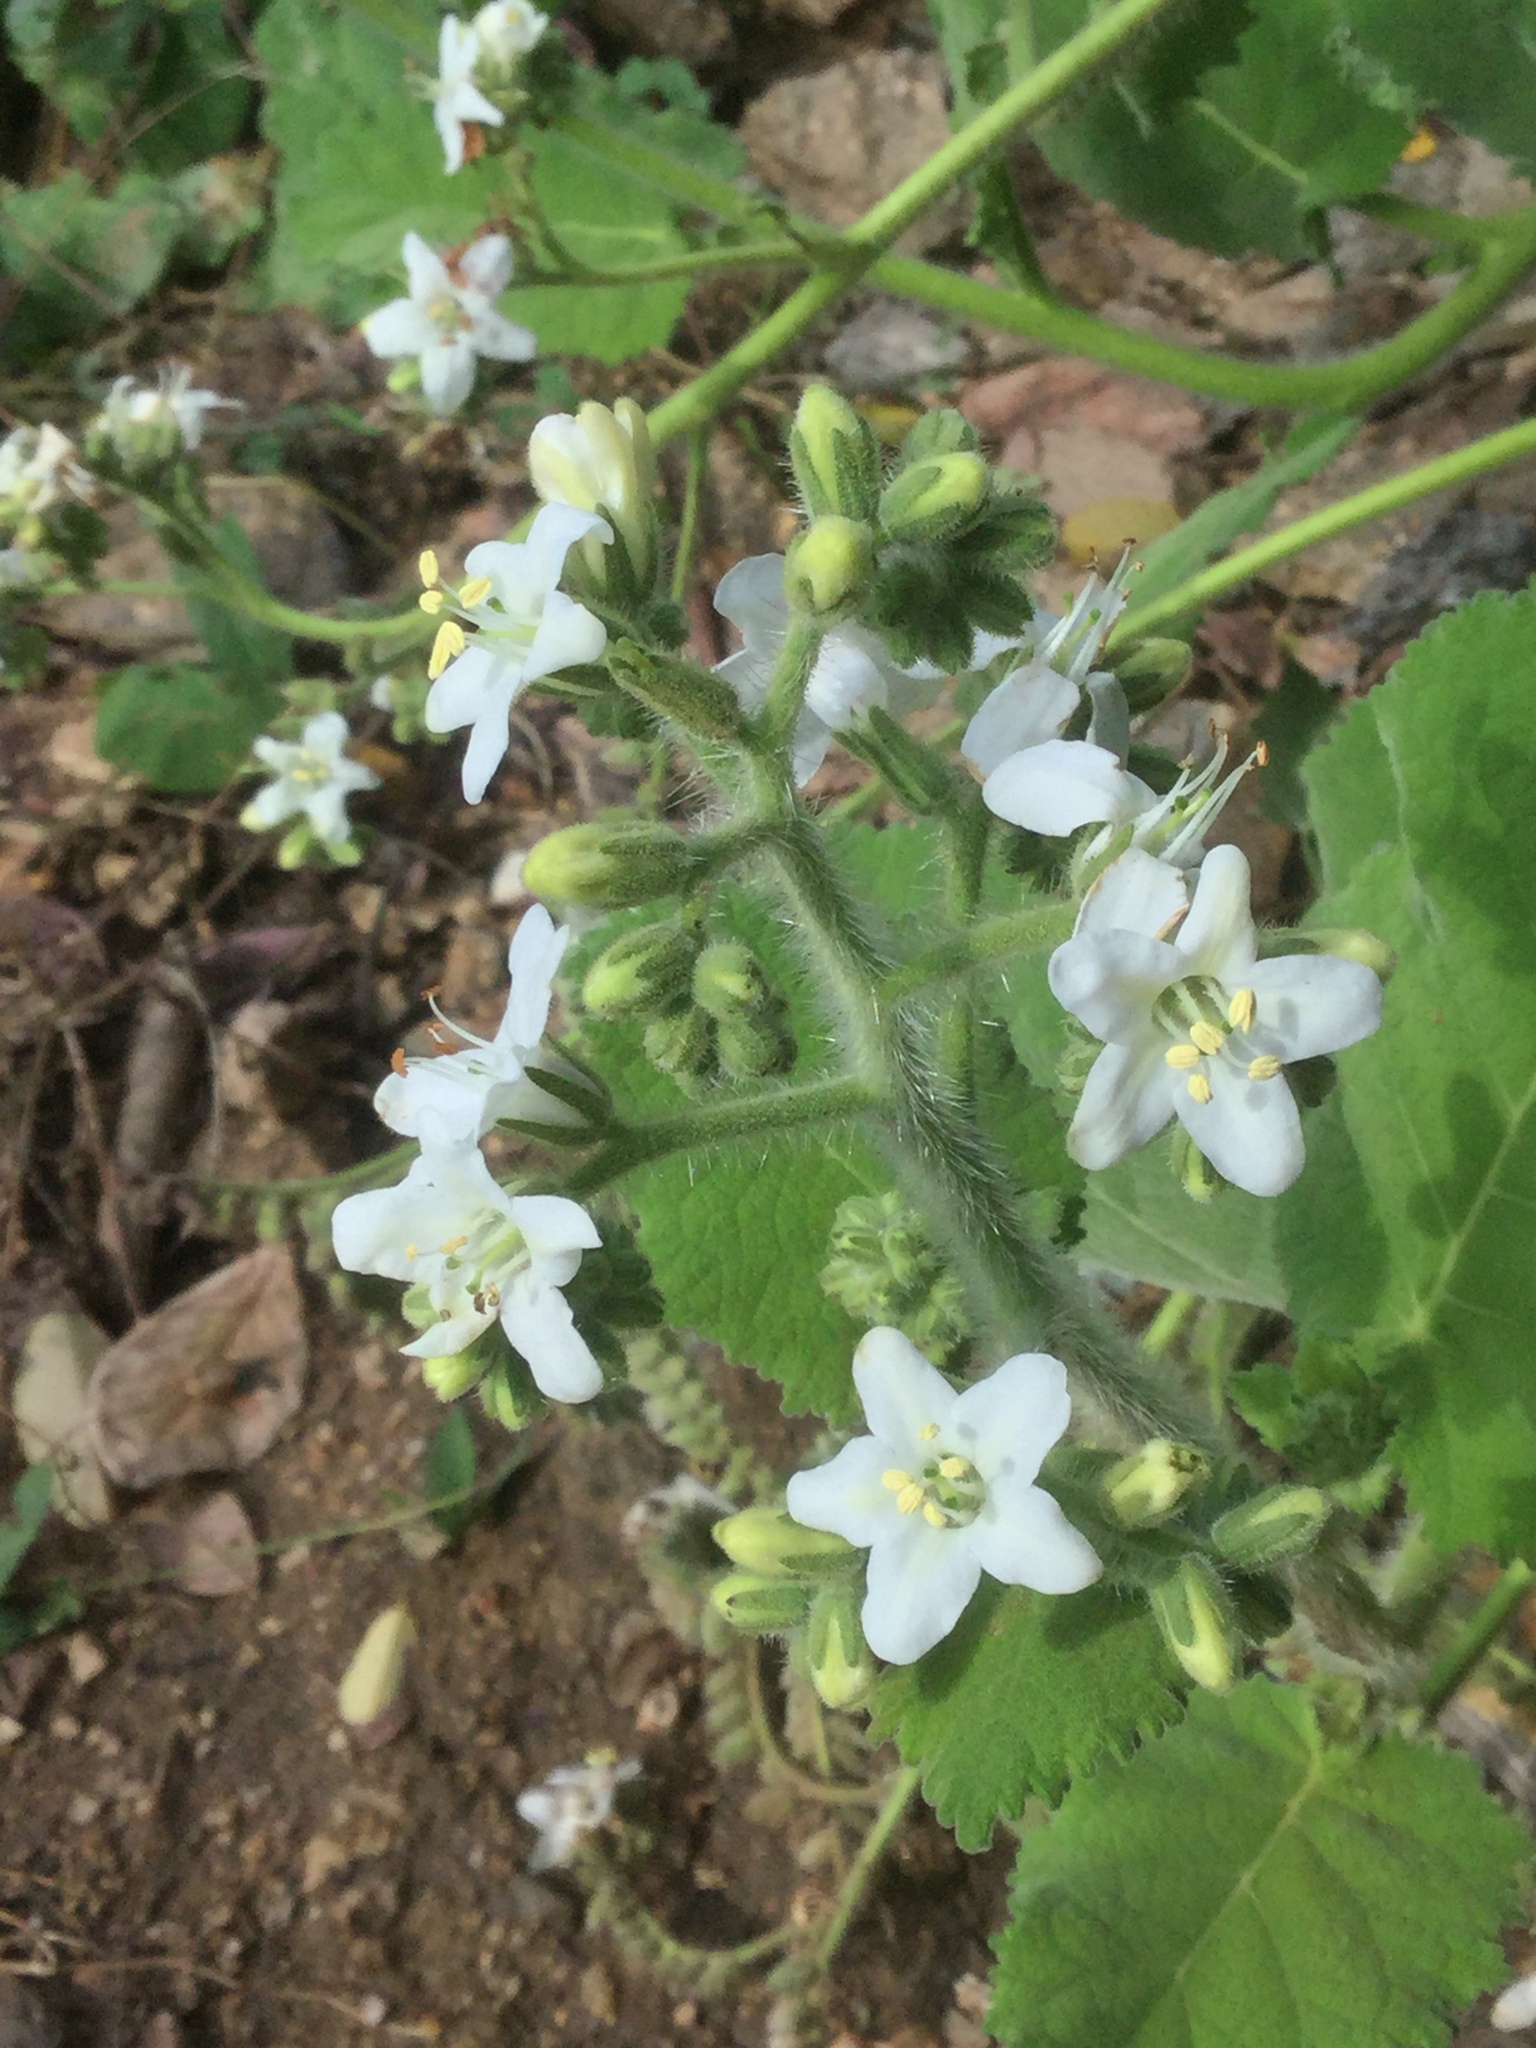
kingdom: Plantae
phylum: Tracheophyta
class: Magnoliopsida
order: Boraginales
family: Namaceae
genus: Wigandia
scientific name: Wigandia urens
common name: Caracus wigandia
